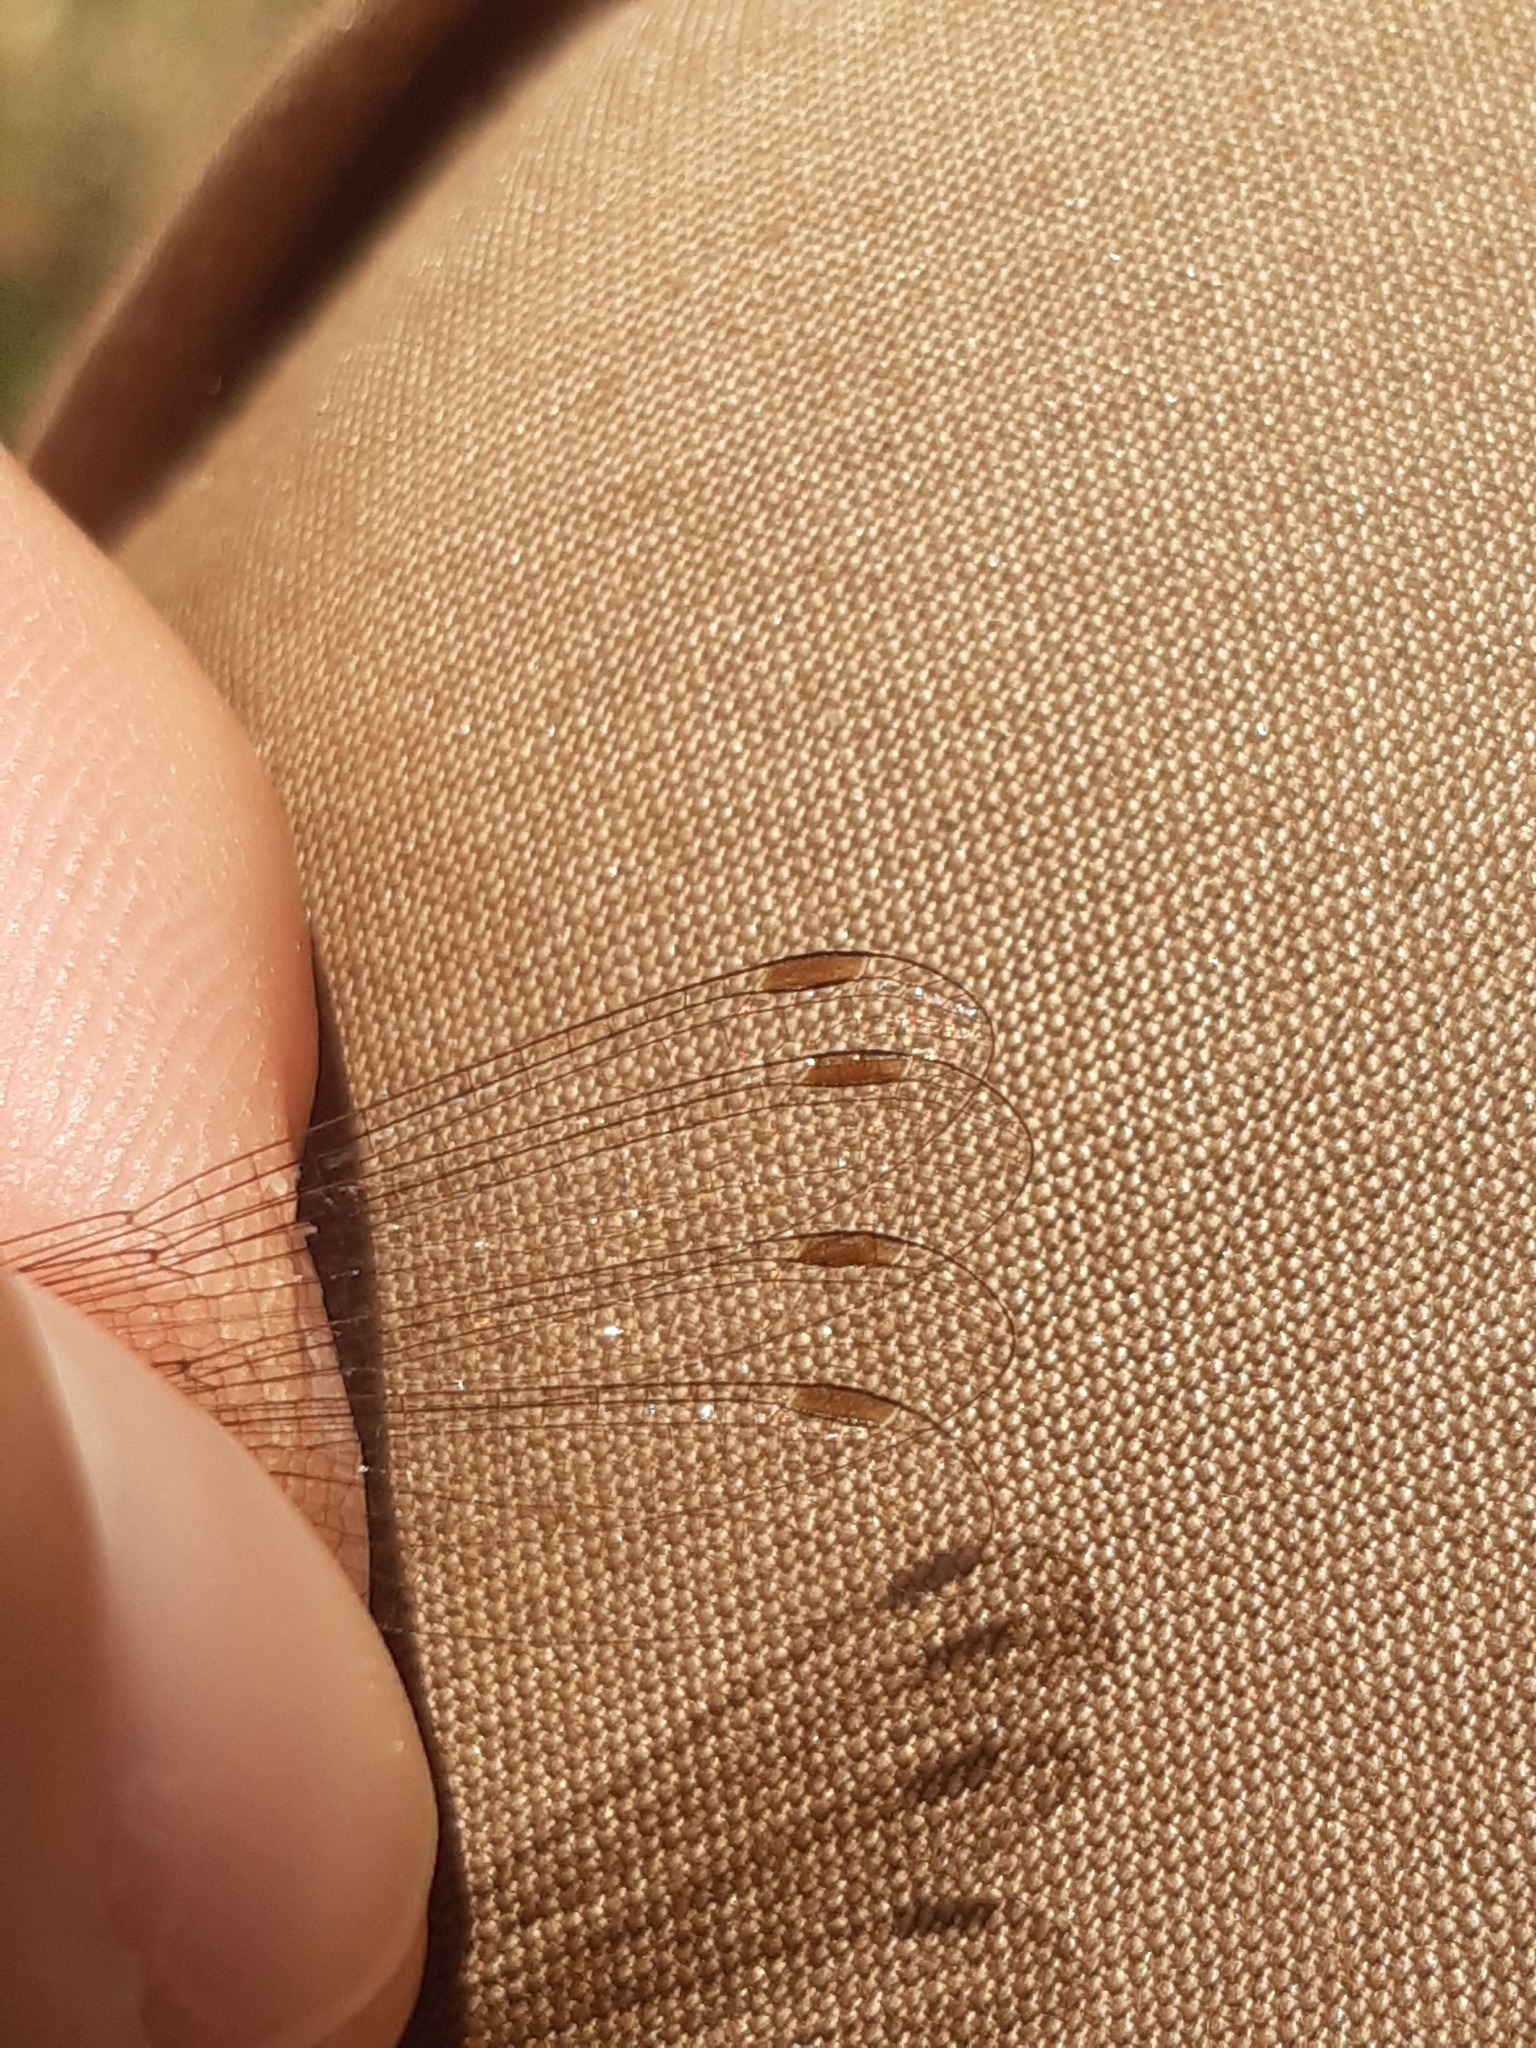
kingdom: Animalia
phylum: Arthropoda
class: Insecta
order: Odonata
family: Lestidae
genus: Lestes
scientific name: Lestes virens
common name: Small emerald spreadwing
